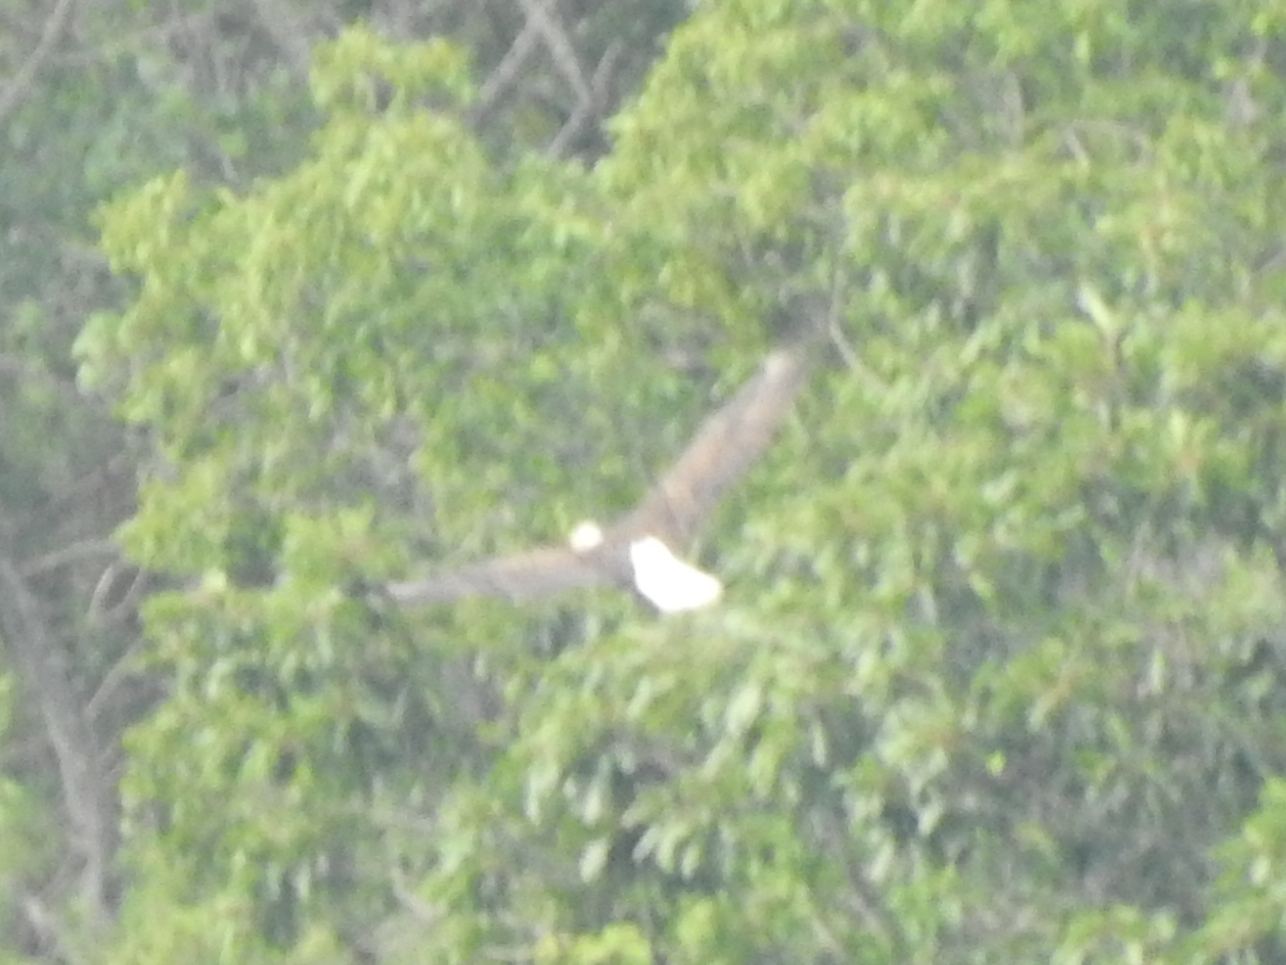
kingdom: Animalia
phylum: Chordata
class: Aves
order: Accipitriformes
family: Accipitridae
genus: Haliaeetus
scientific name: Haliaeetus leucocephalus
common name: Bald eagle
